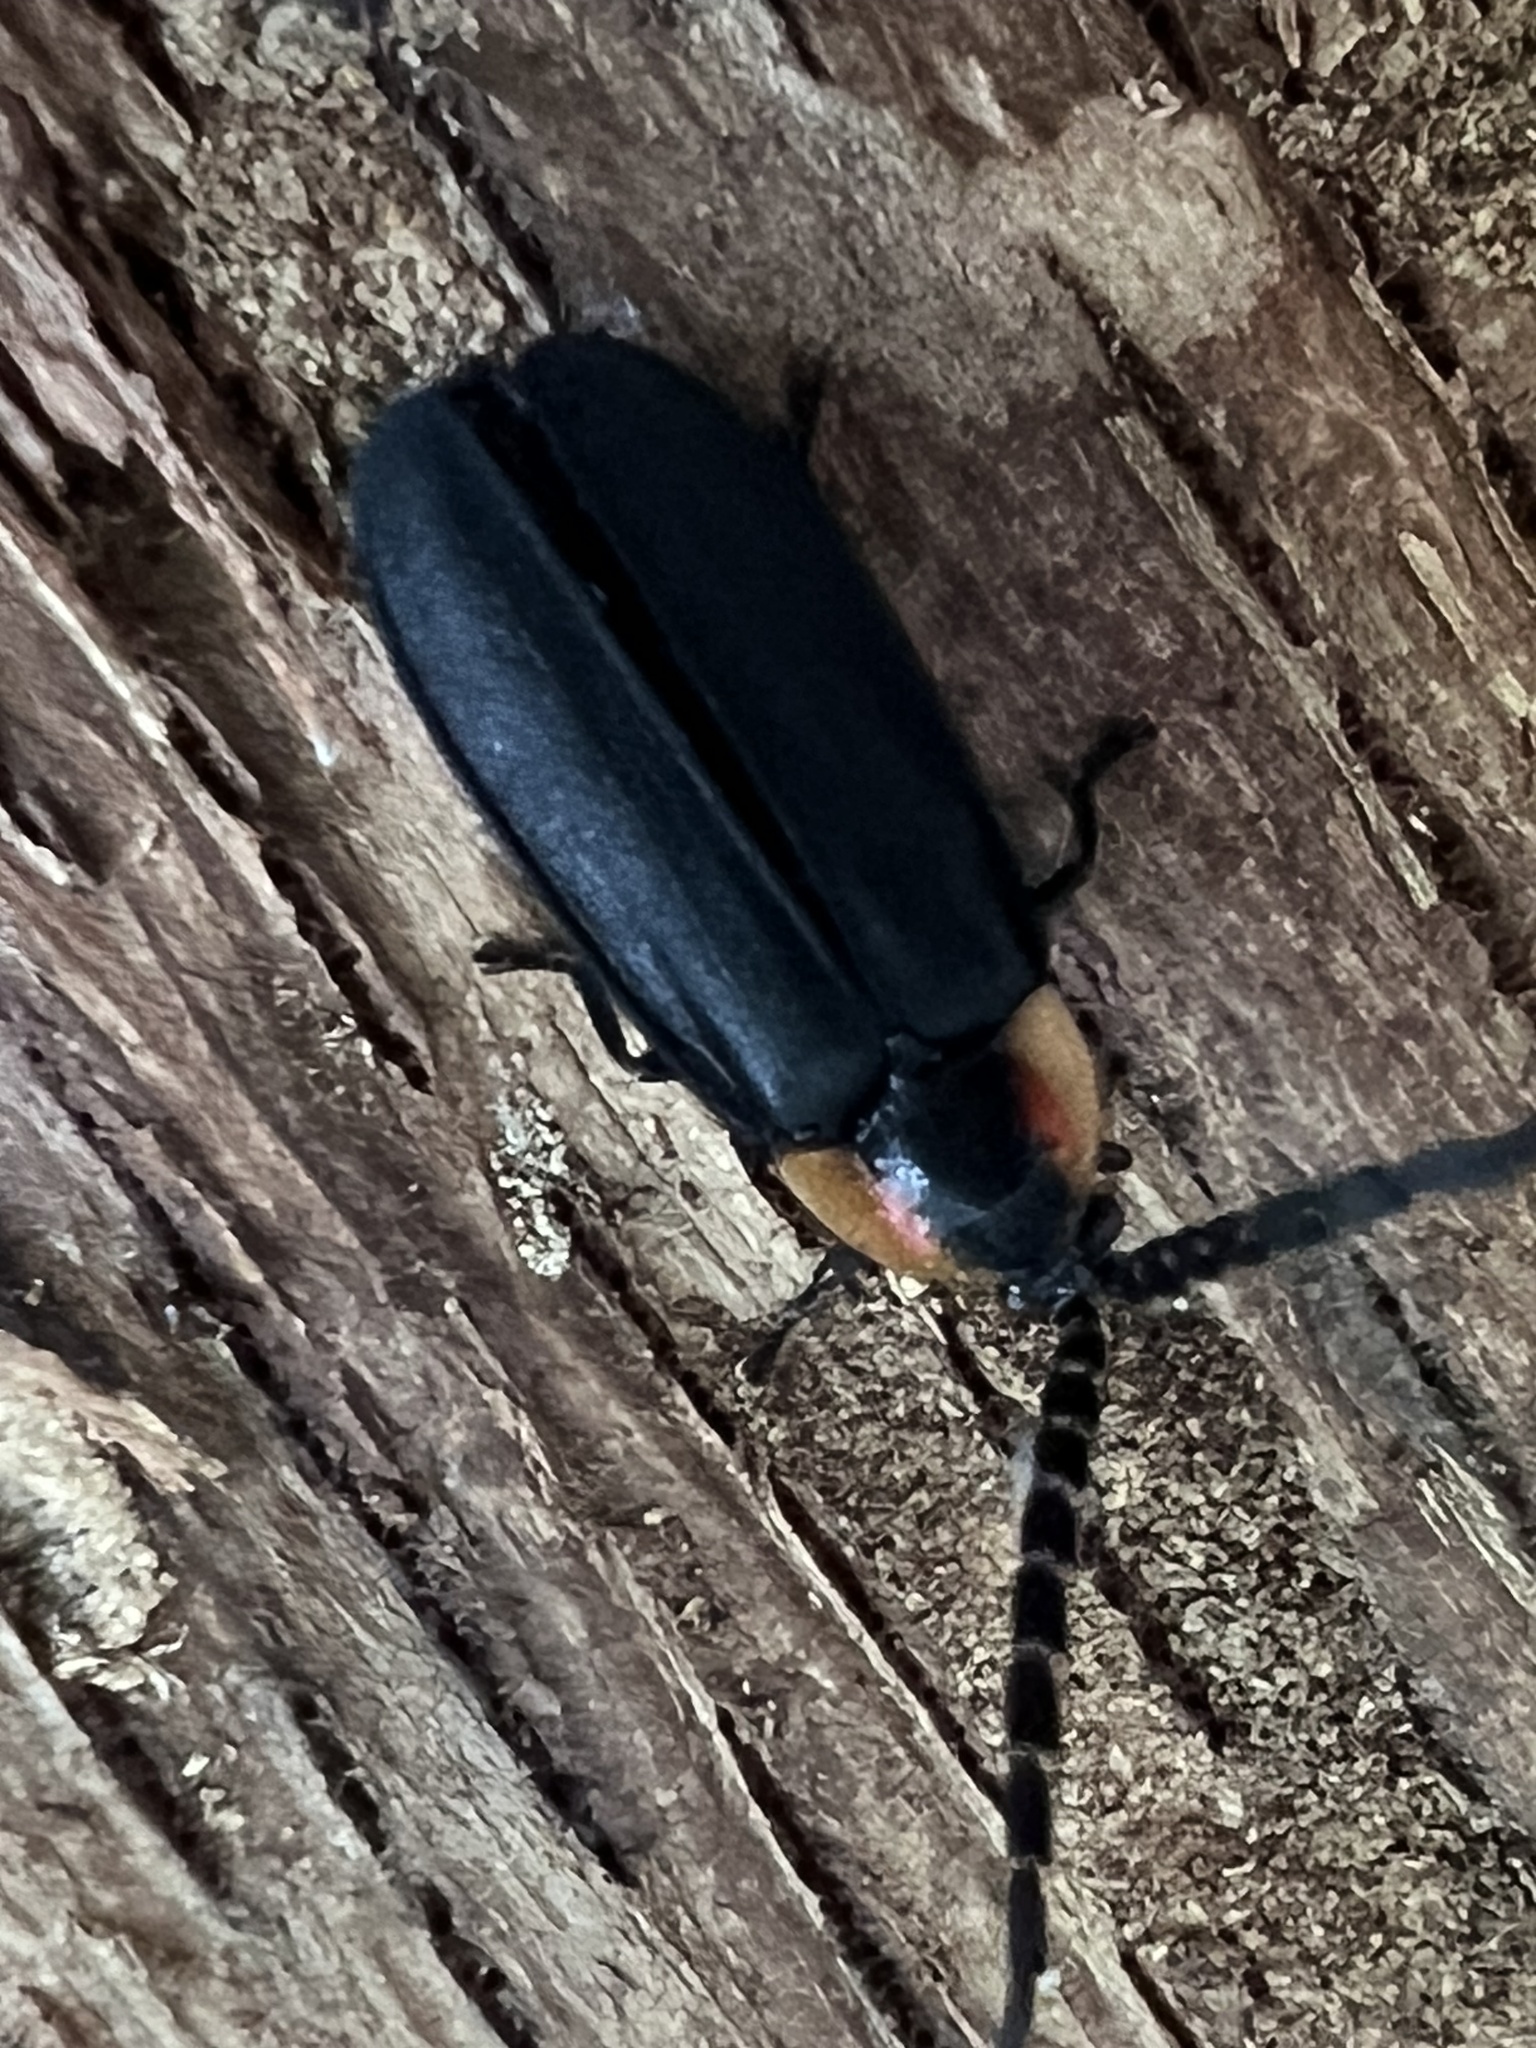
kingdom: Animalia
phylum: Arthropoda
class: Insecta
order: Coleoptera
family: Lampyridae
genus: Lucidota
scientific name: Lucidota atra
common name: Black firefly
